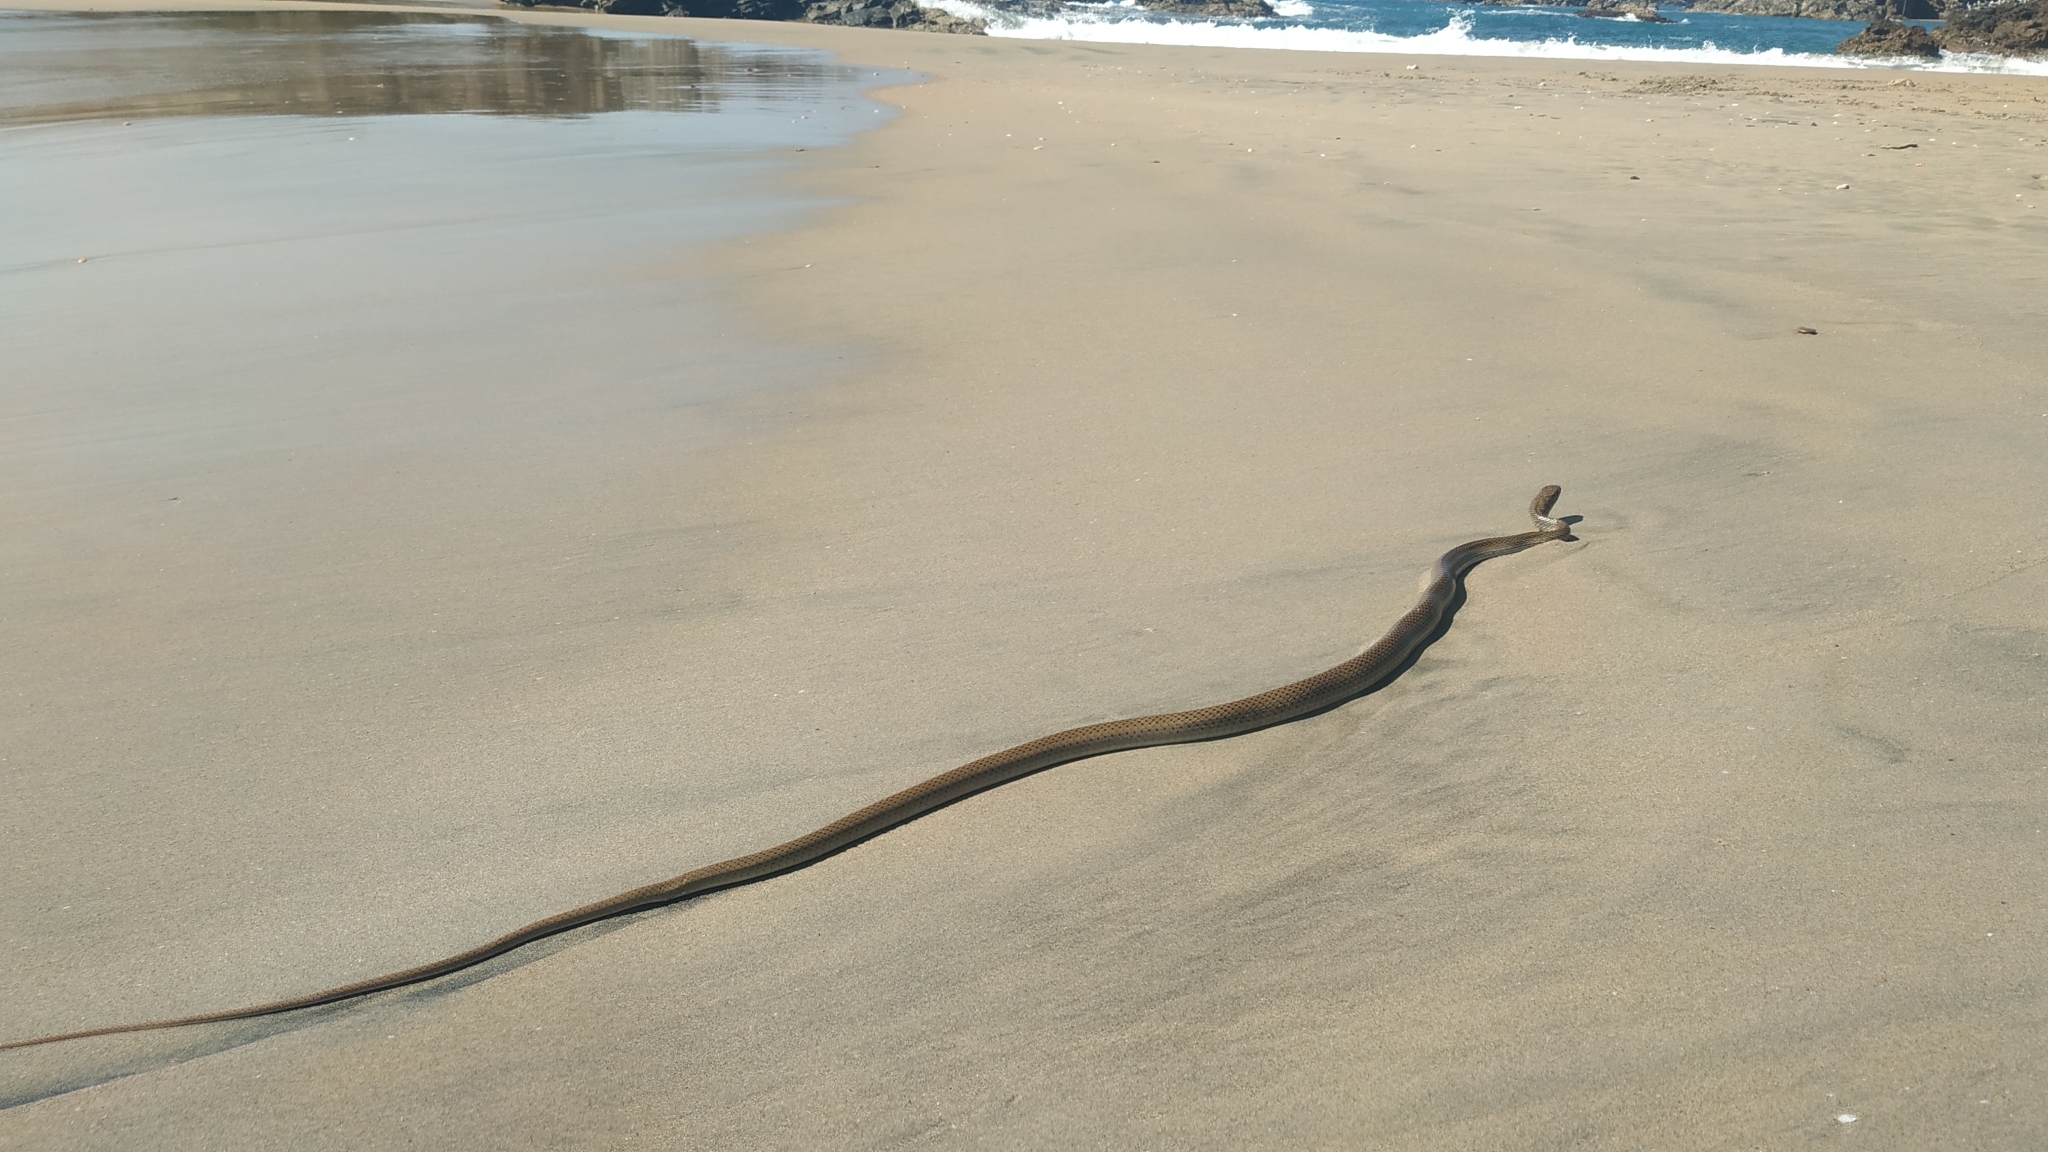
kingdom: Animalia
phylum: Chordata
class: Squamata
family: Colubridae
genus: Masticophis
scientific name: Masticophis mentovarius
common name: Neotropical whip snake
